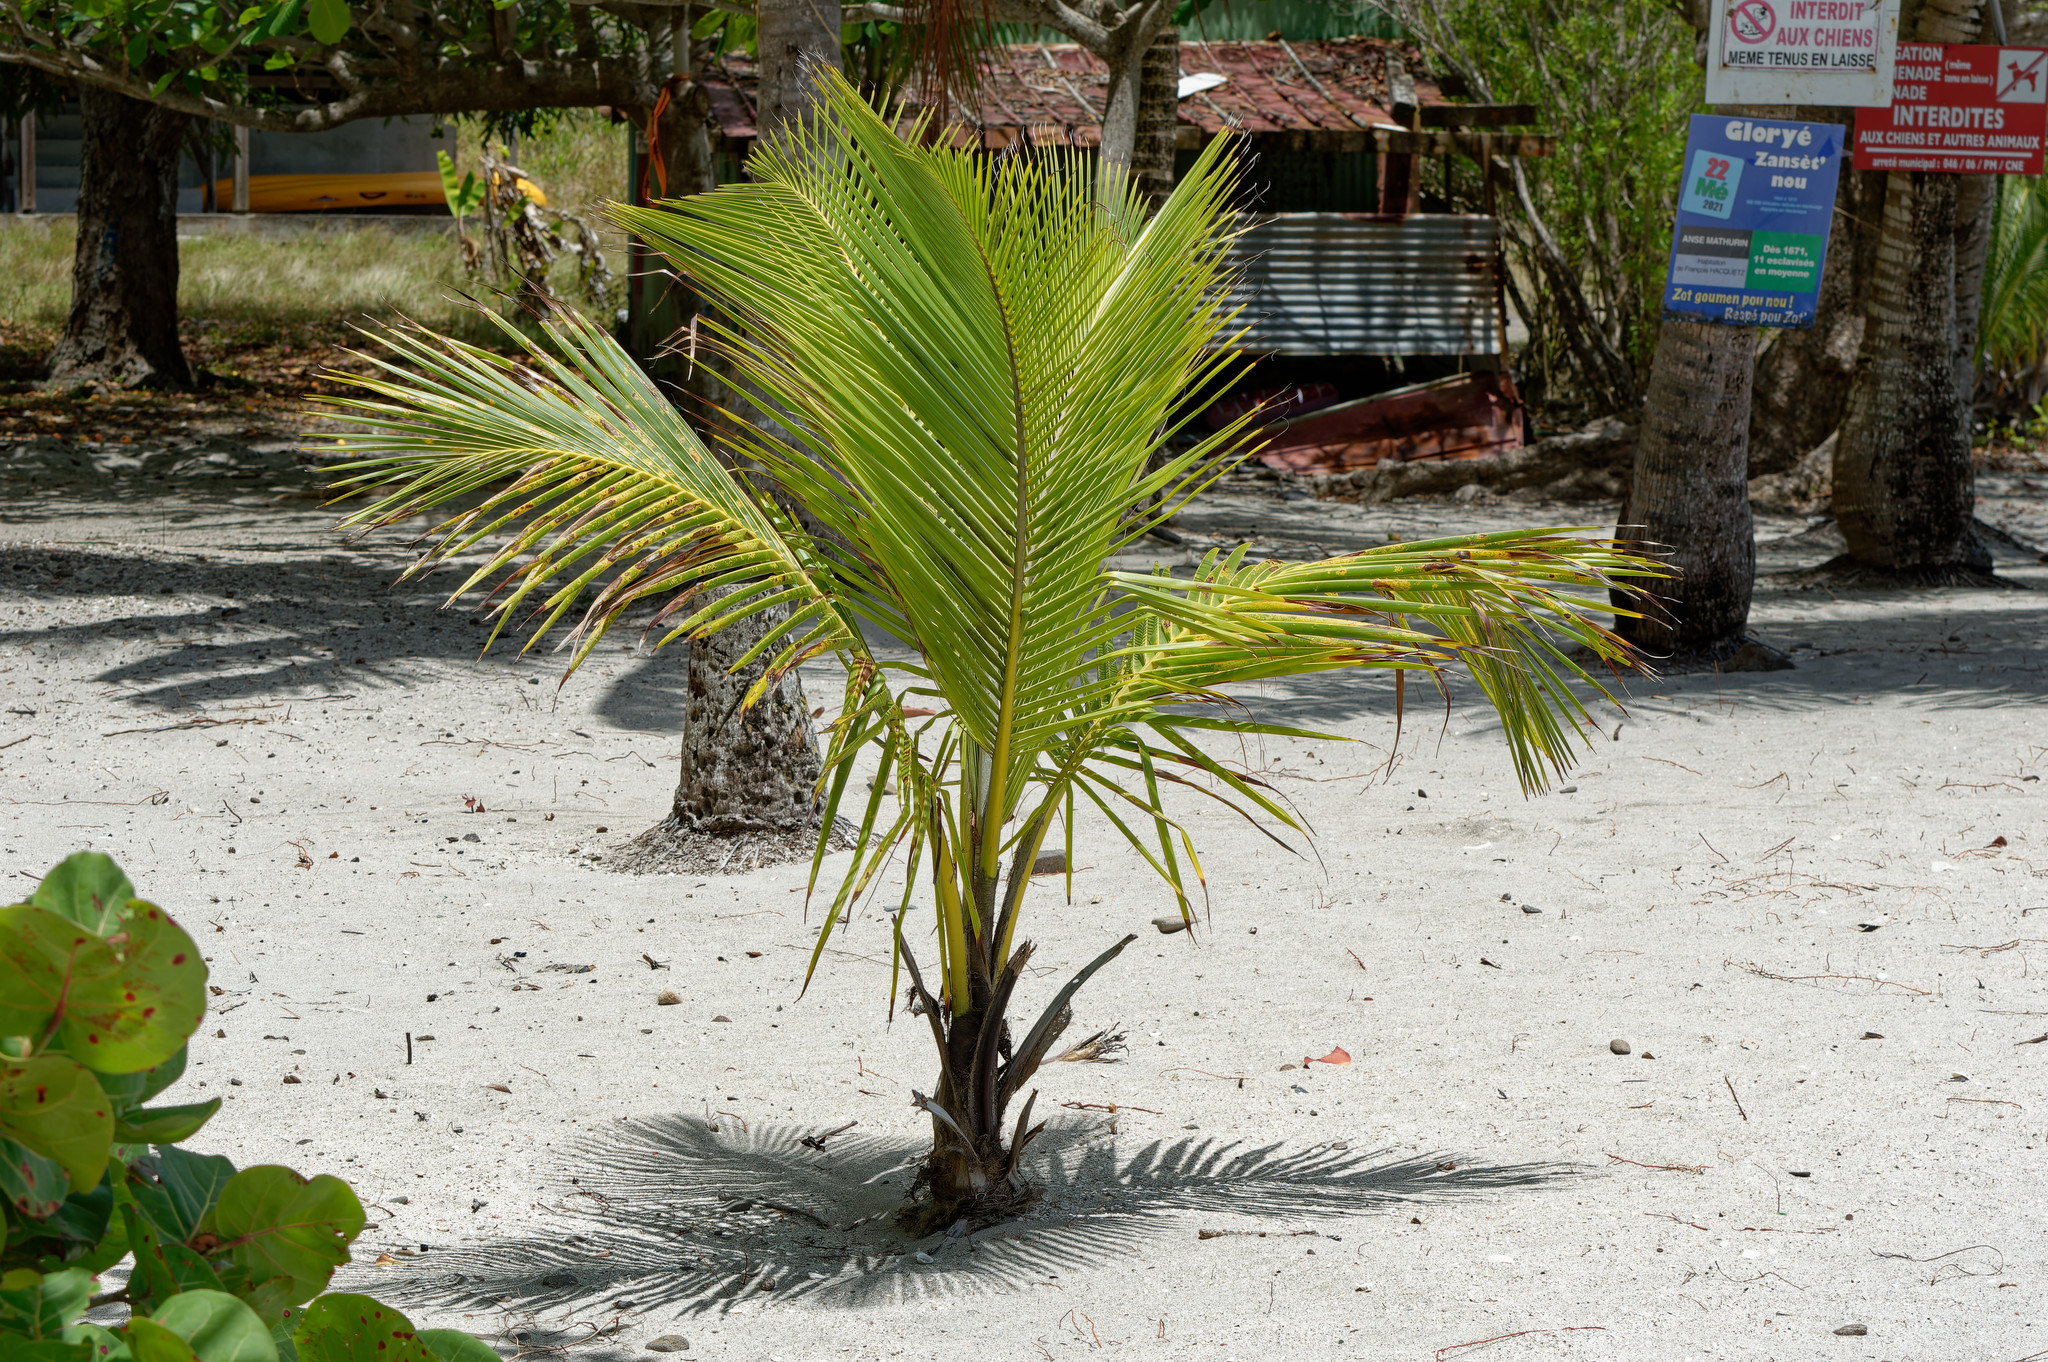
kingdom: Plantae
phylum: Tracheophyta
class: Liliopsida
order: Arecales
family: Arecaceae
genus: Cocos
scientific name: Cocos nucifera
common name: Coconut palm
